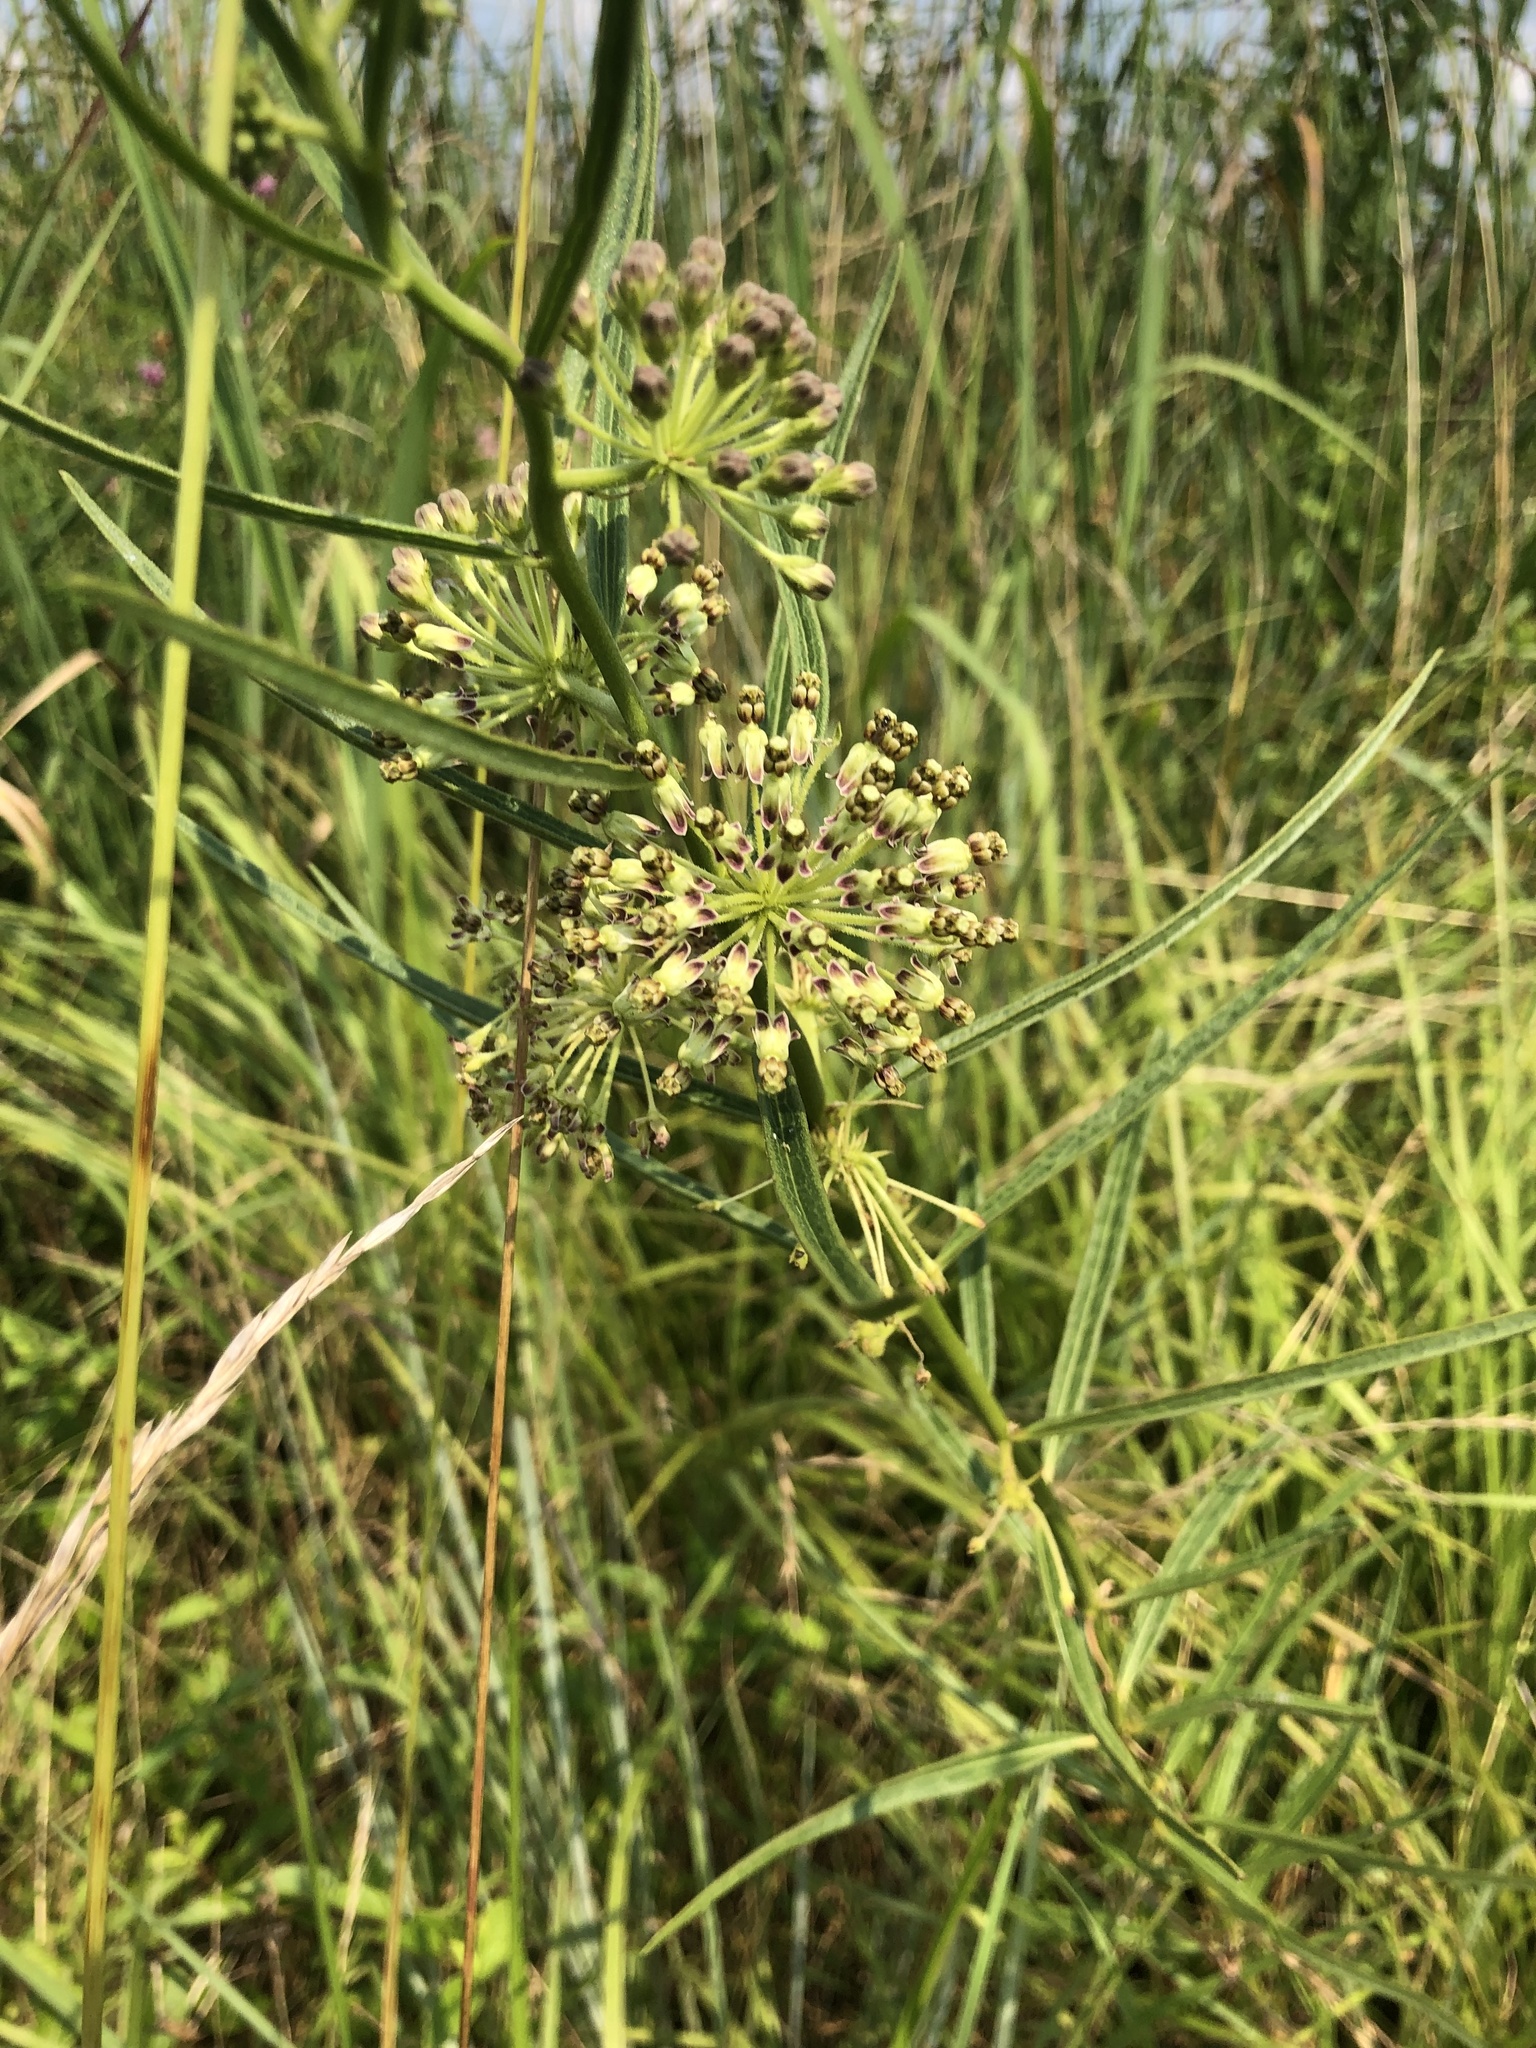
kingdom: Plantae
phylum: Tracheophyta
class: Magnoliopsida
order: Gentianales
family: Apocynaceae
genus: Asclepias
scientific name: Asclepias hirtella
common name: Prairie milkweed
